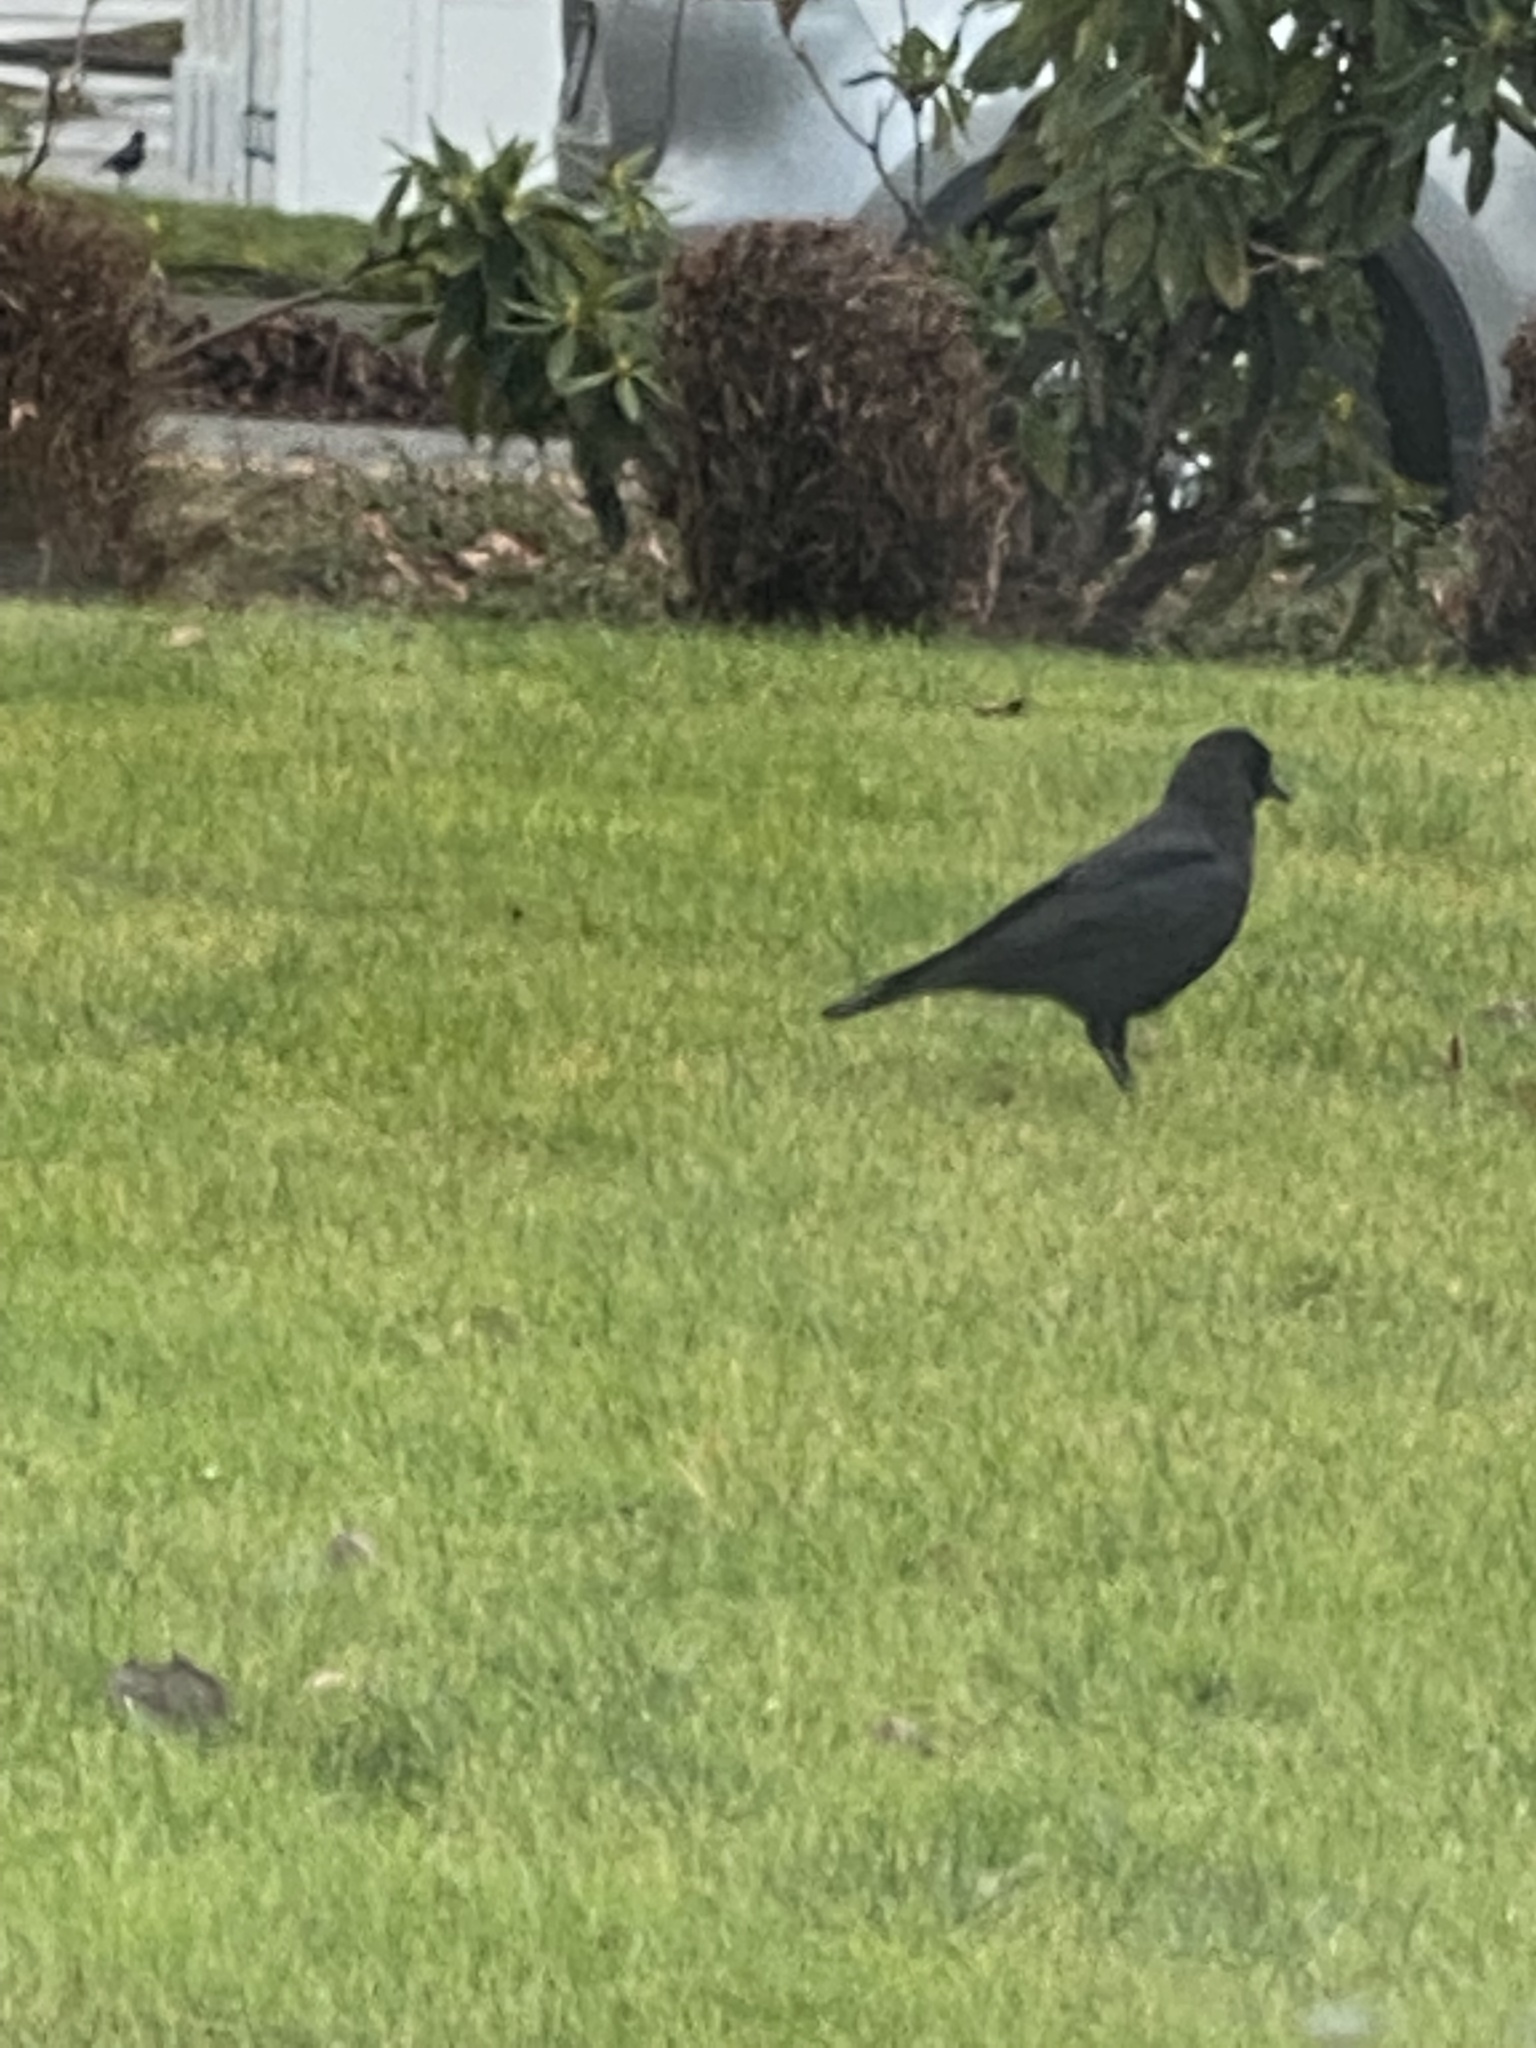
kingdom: Animalia
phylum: Chordata
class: Aves
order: Passeriformes
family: Corvidae
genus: Corvus
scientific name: Corvus brachyrhynchos
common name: American crow
